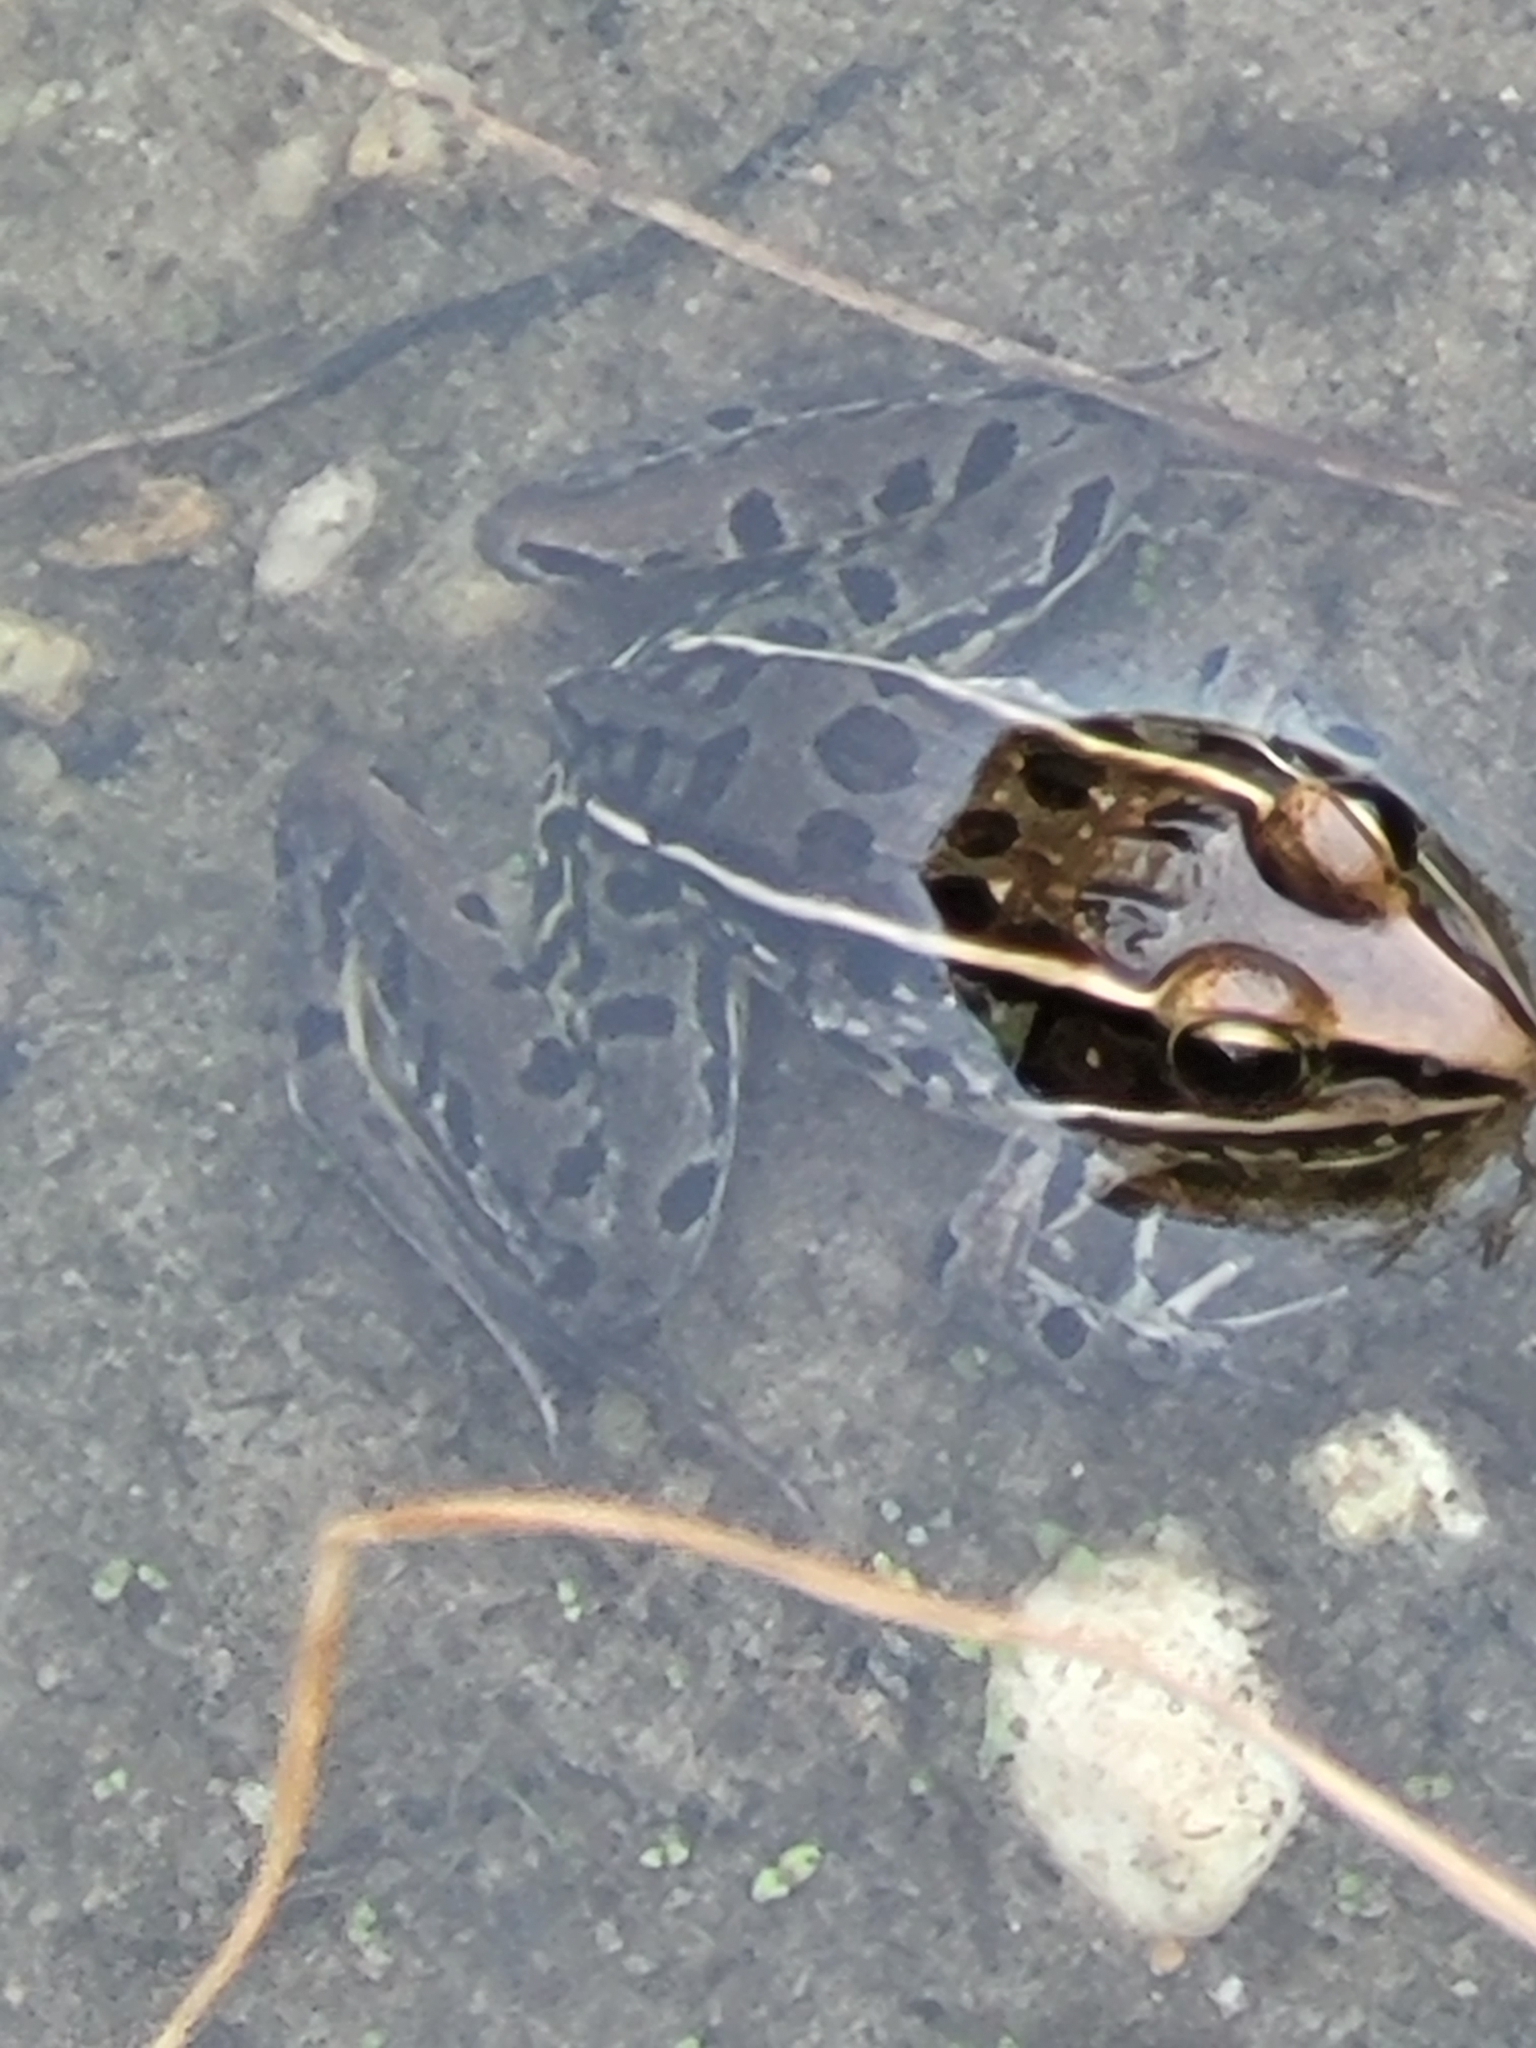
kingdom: Animalia
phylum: Chordata
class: Amphibia
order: Anura
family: Ranidae
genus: Lithobates
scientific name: Lithobates sphenocephalus
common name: Southern leopard frog
